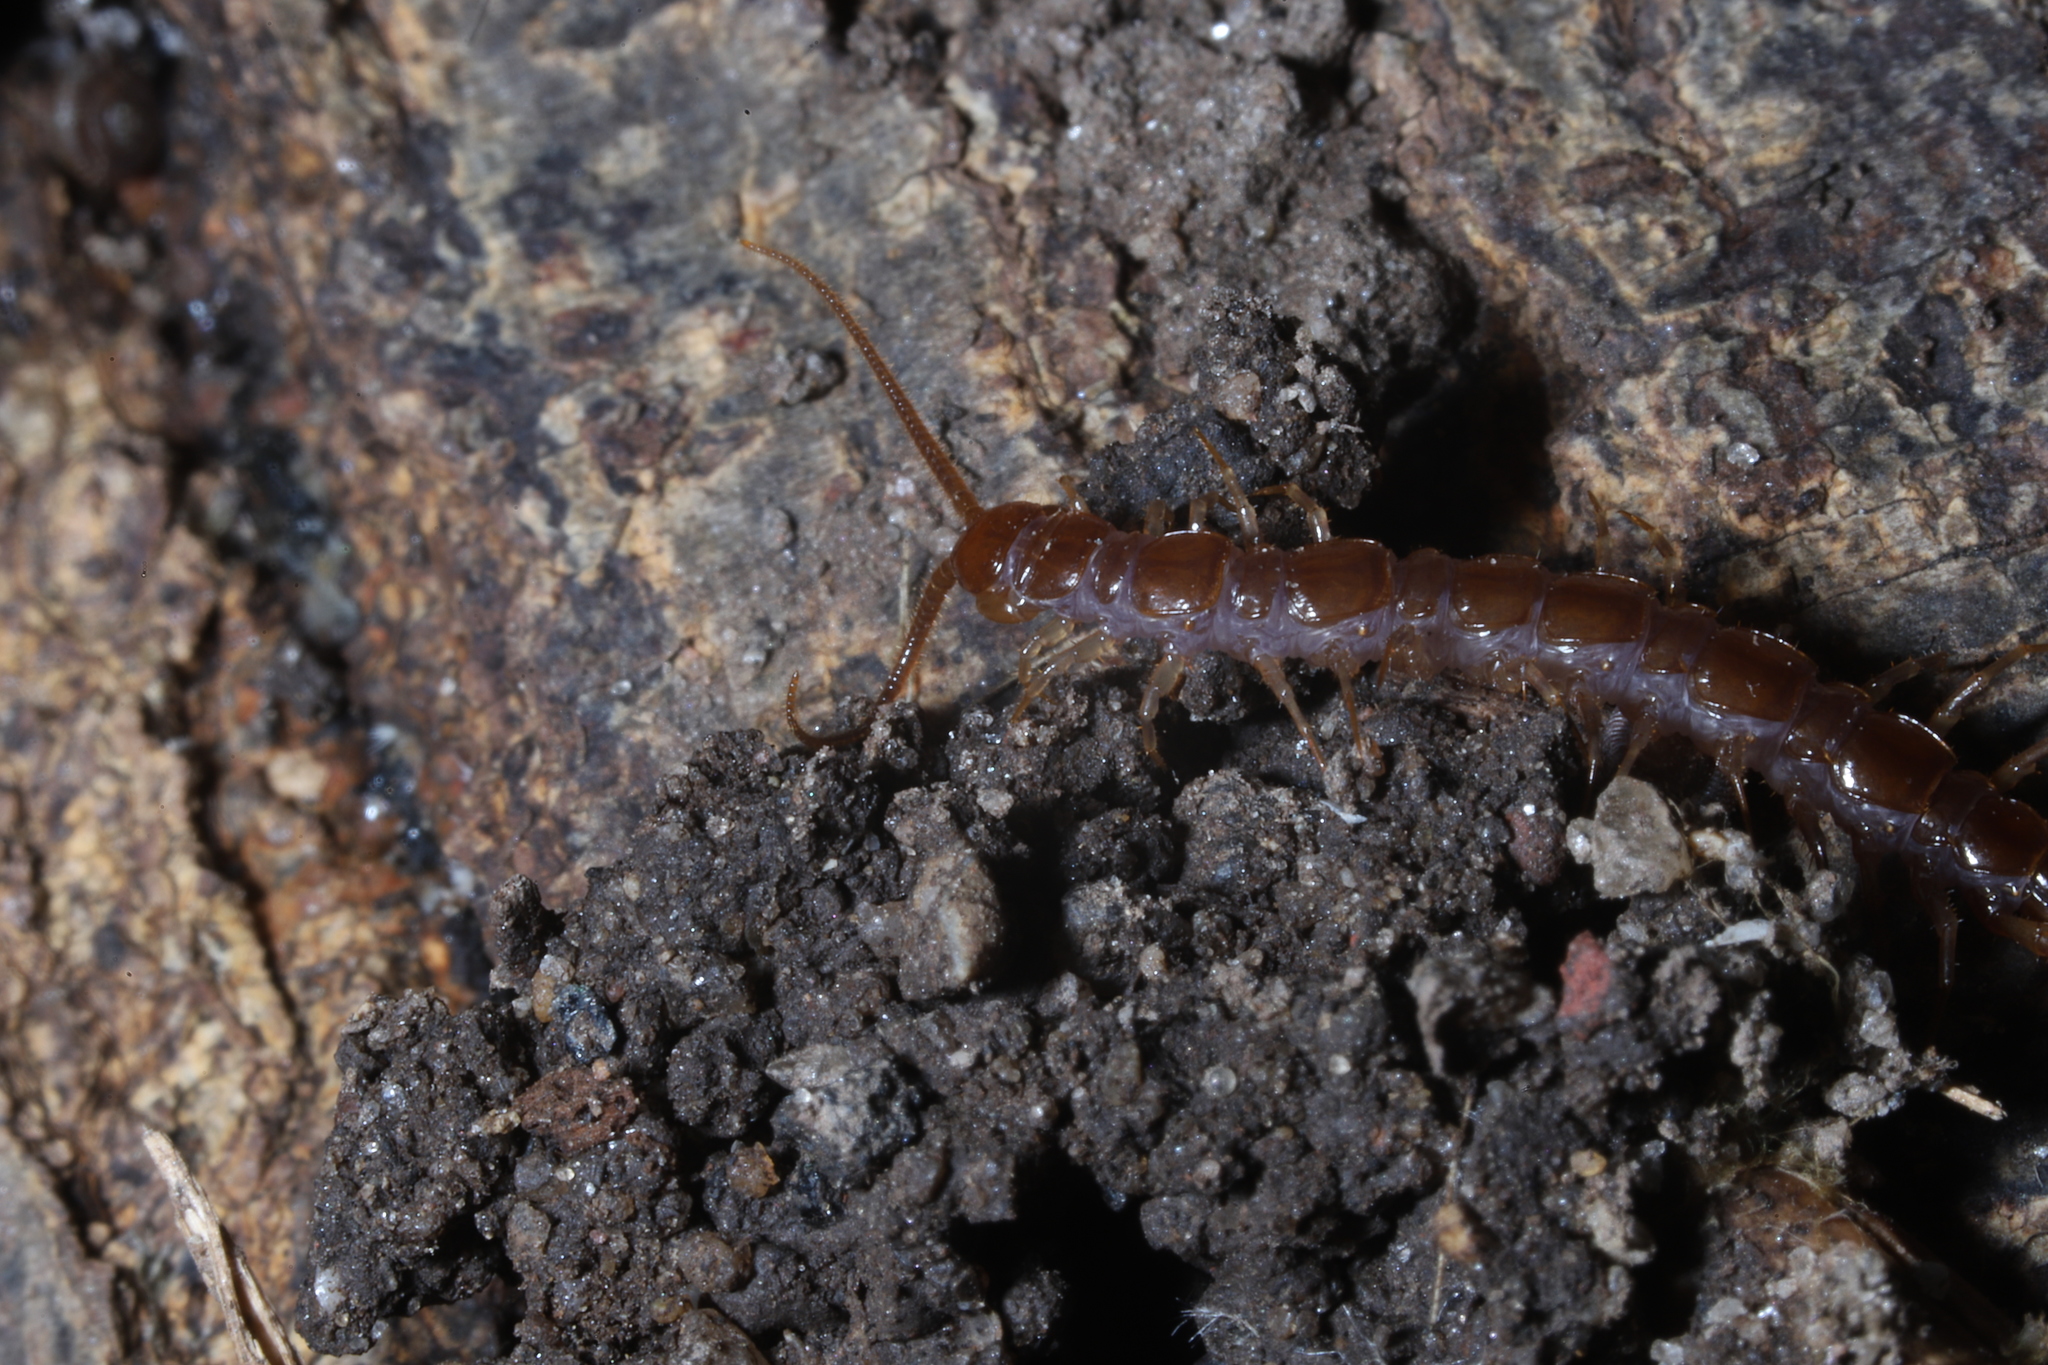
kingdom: Animalia
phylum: Arthropoda
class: Chilopoda
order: Lithobiomorpha
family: Lithobiidae
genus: Lithobius
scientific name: Lithobius forficatus
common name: Centipede
